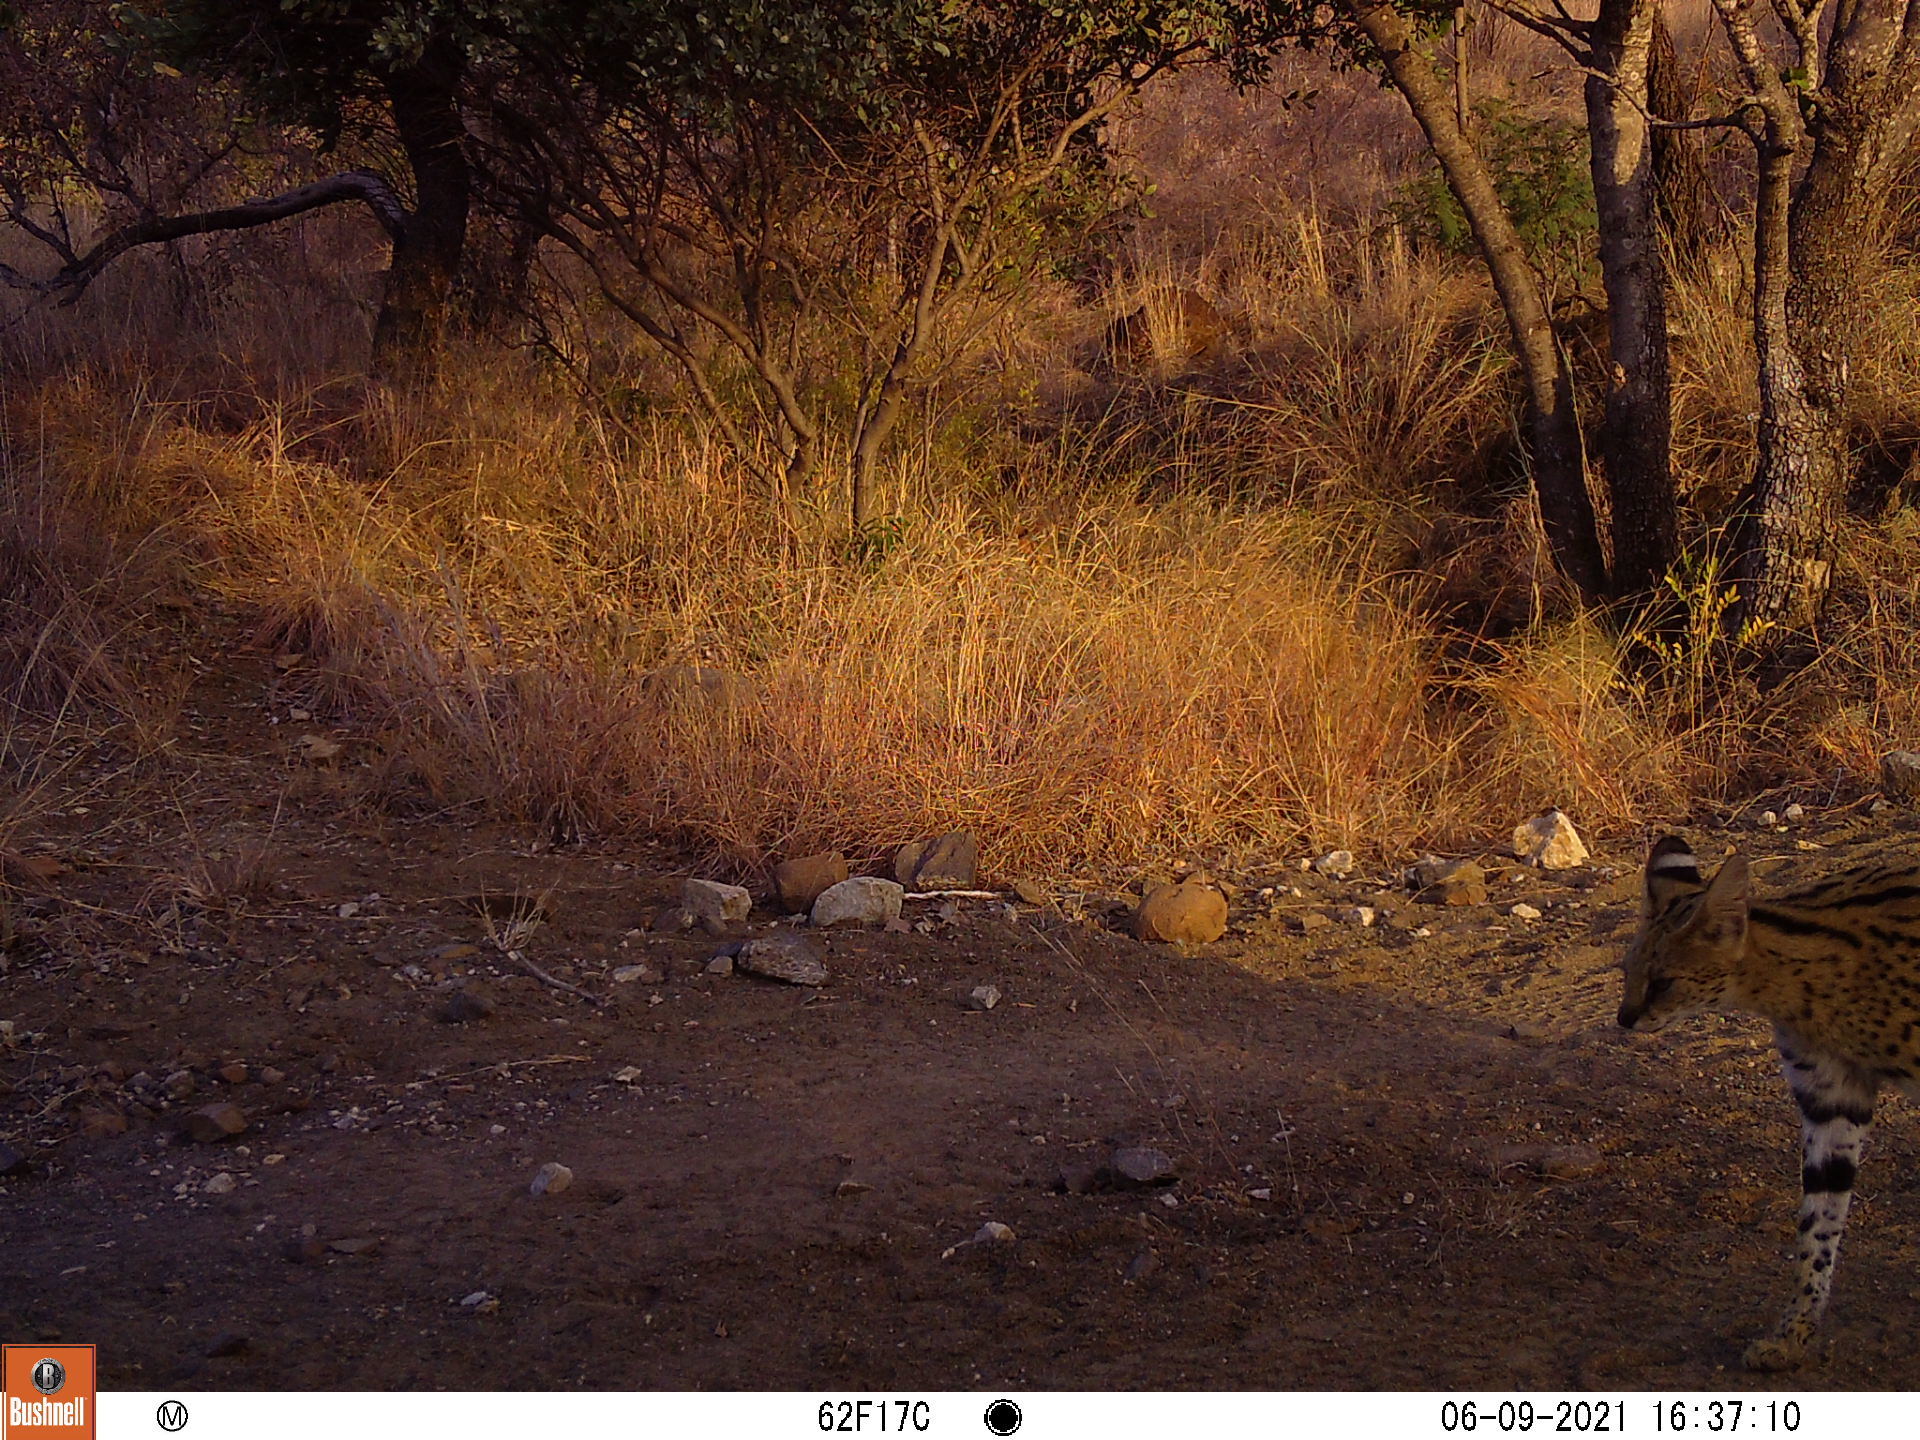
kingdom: Animalia
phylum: Chordata
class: Mammalia
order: Carnivora
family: Felidae
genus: Leptailurus
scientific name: Leptailurus serval
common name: Serval
